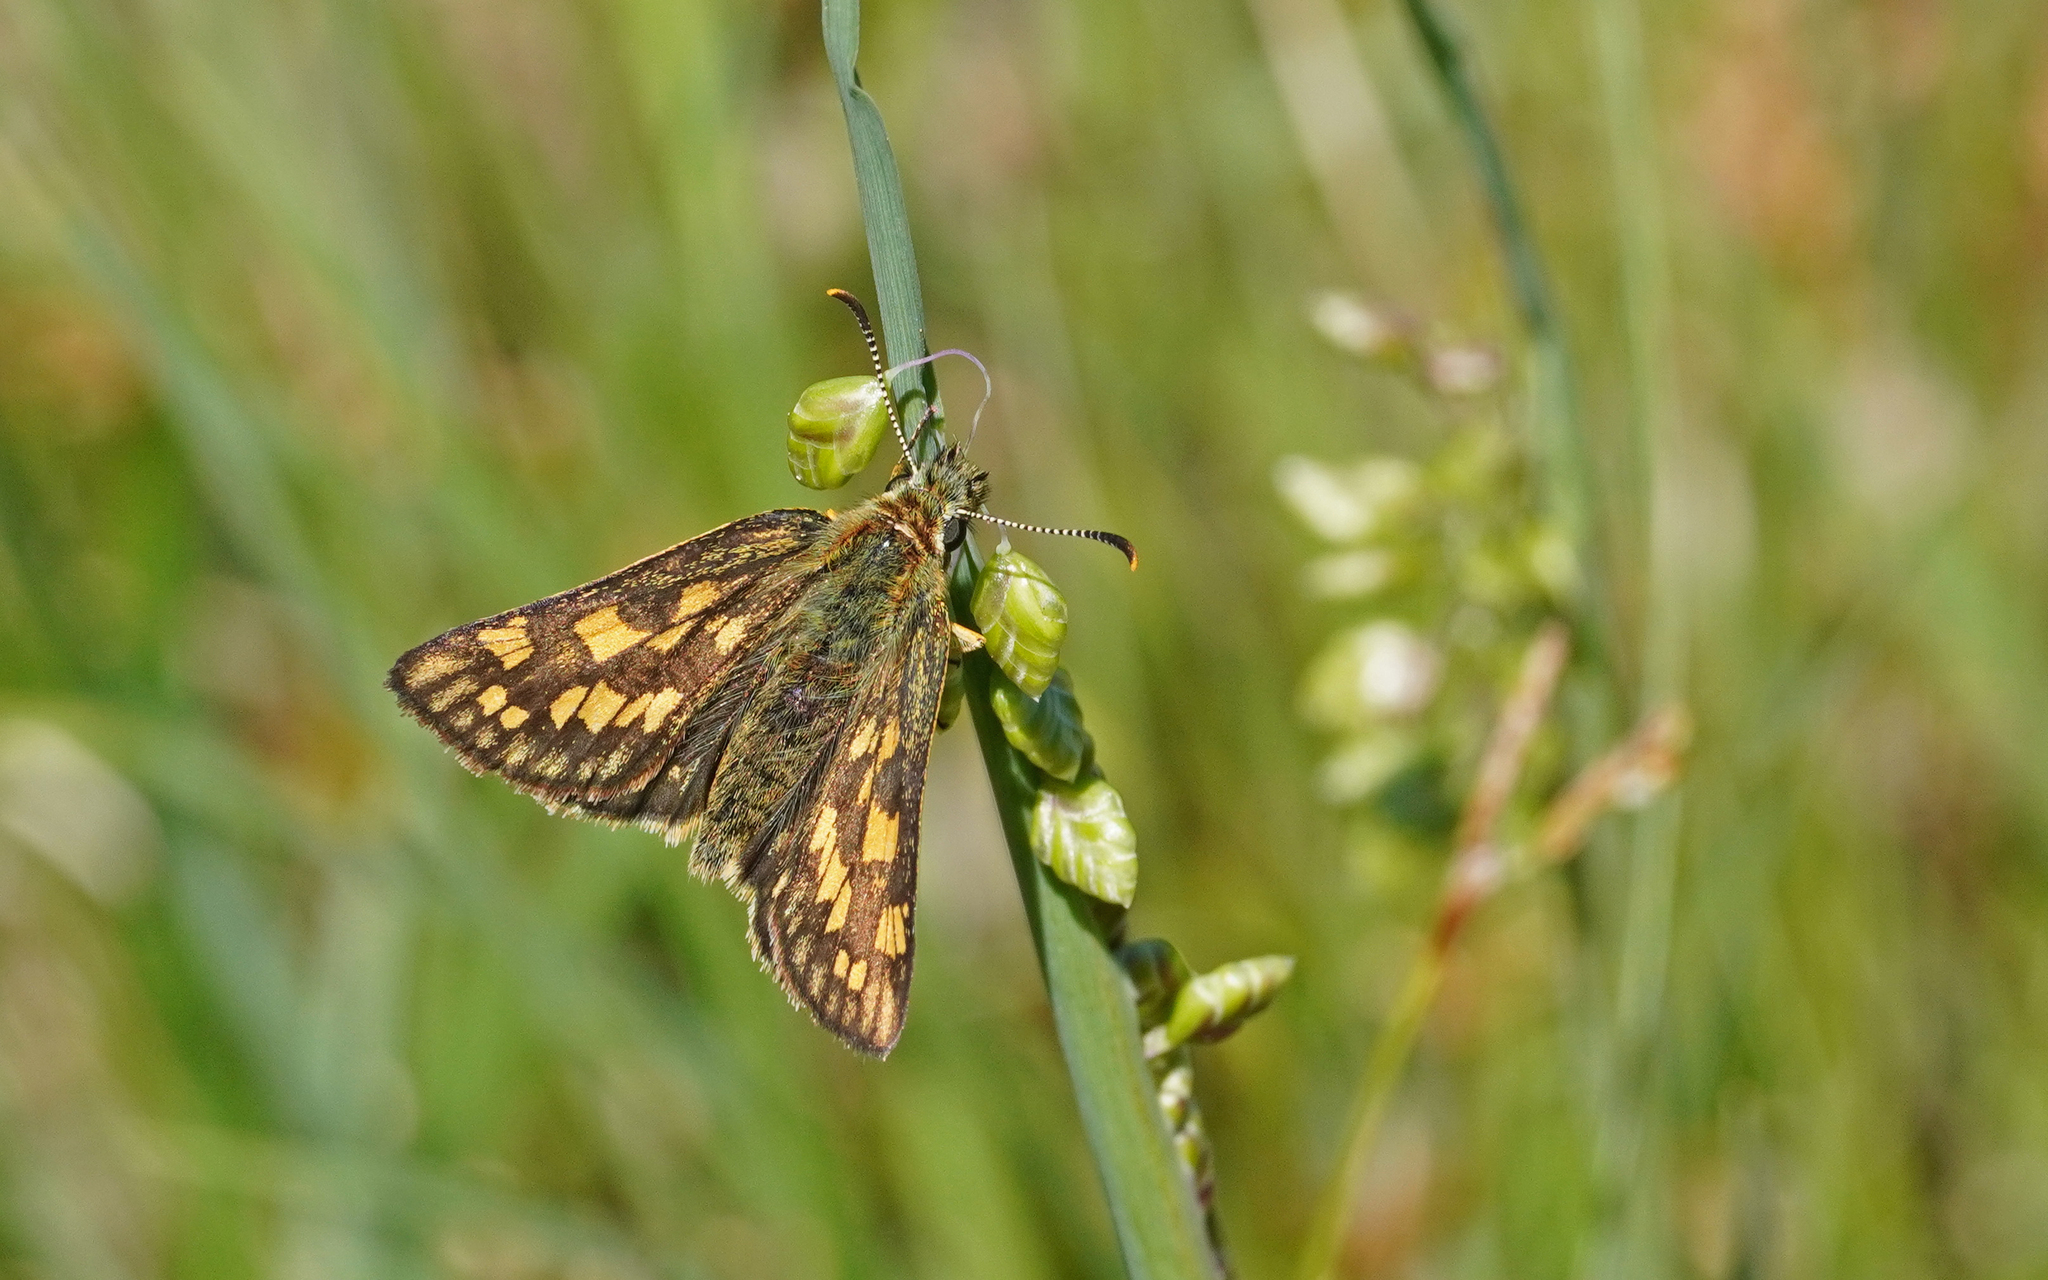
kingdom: Animalia
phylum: Arthropoda
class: Insecta
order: Lepidoptera
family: Hesperiidae
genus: Carterocephalus
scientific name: Carterocephalus palaemon
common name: Chequered skipper
